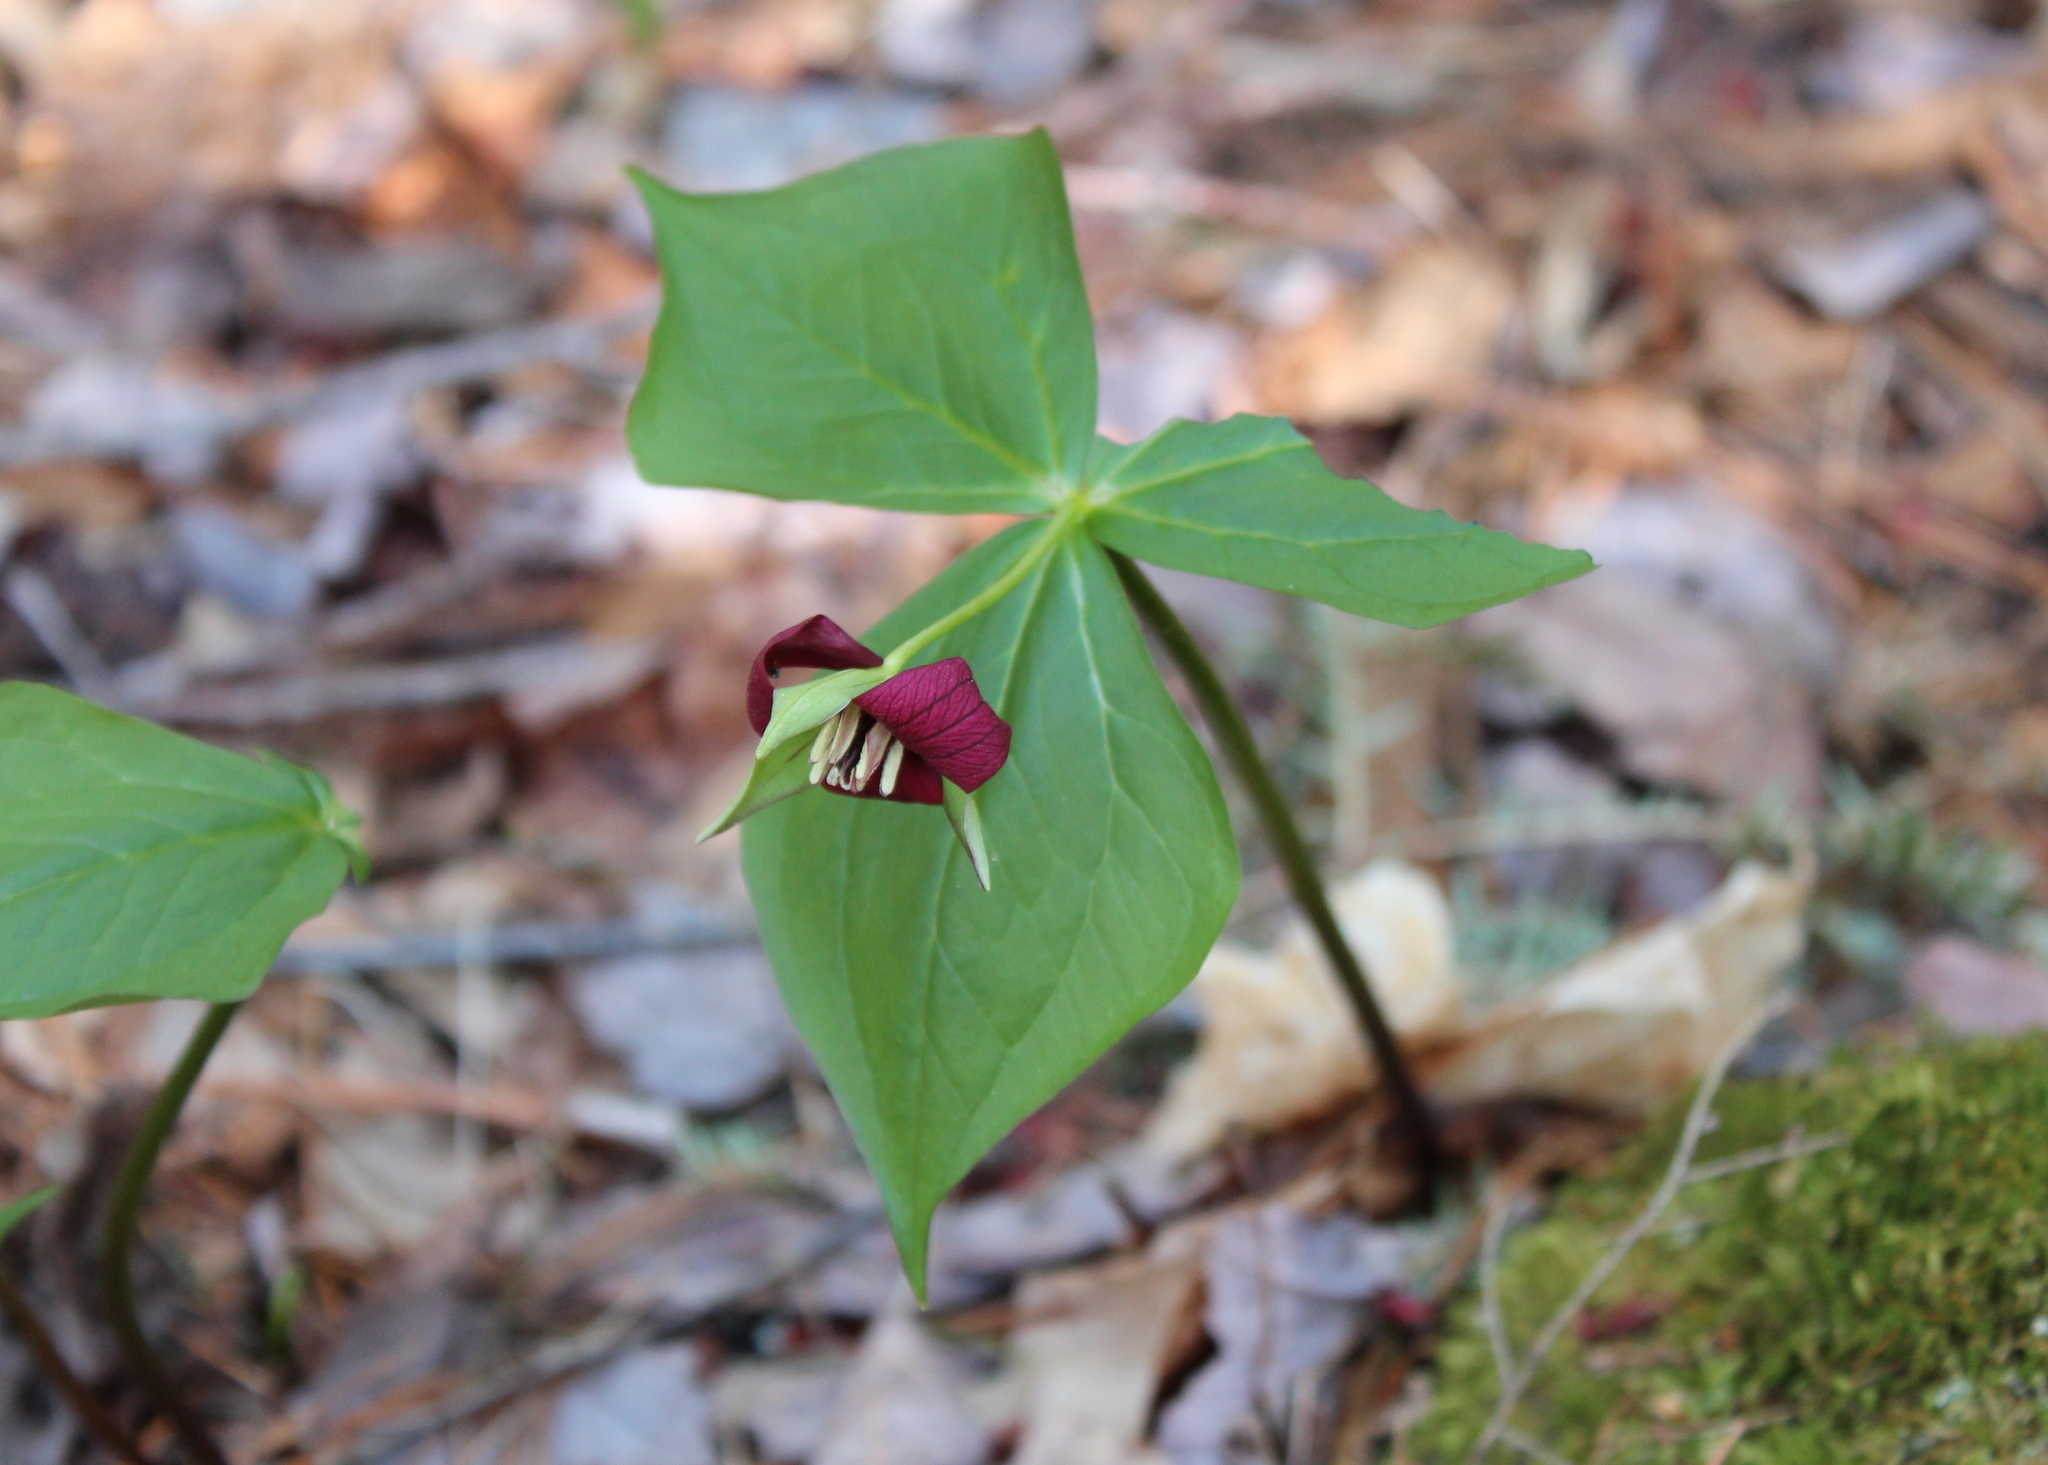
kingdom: Plantae
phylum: Tracheophyta
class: Liliopsida
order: Liliales
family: Melanthiaceae
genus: Trillium
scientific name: Trillium erectum
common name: Purple trillium
